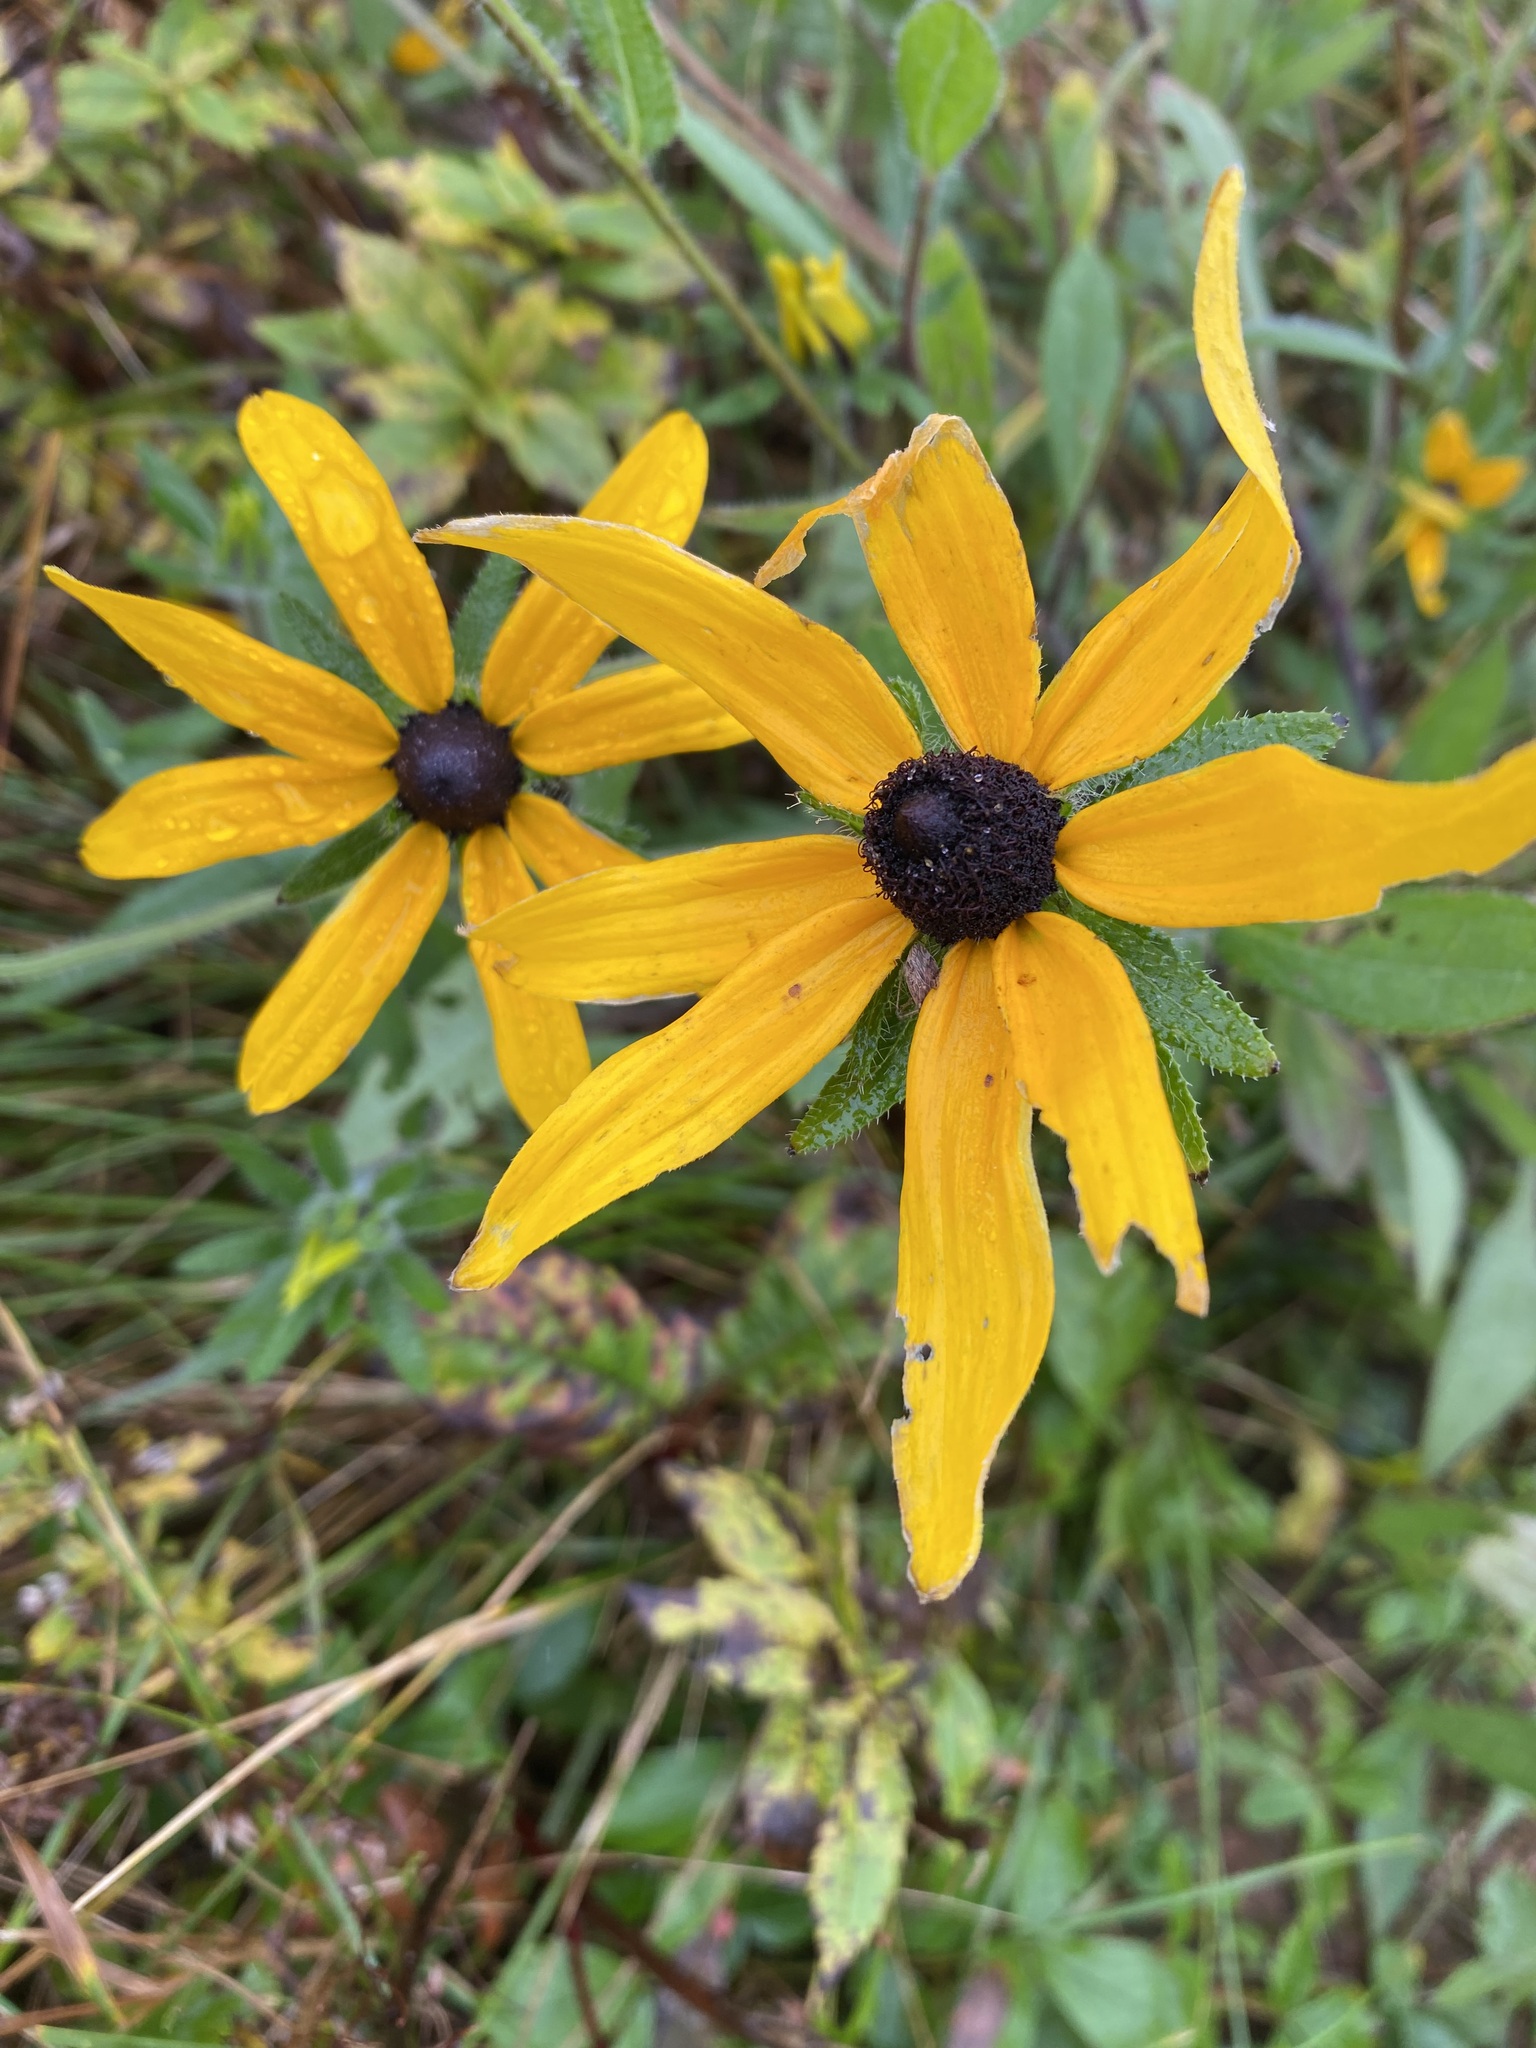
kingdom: Plantae
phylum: Tracheophyta
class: Magnoliopsida
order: Asterales
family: Asteraceae
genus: Rudbeckia
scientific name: Rudbeckia hirta
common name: Black-eyed-susan
